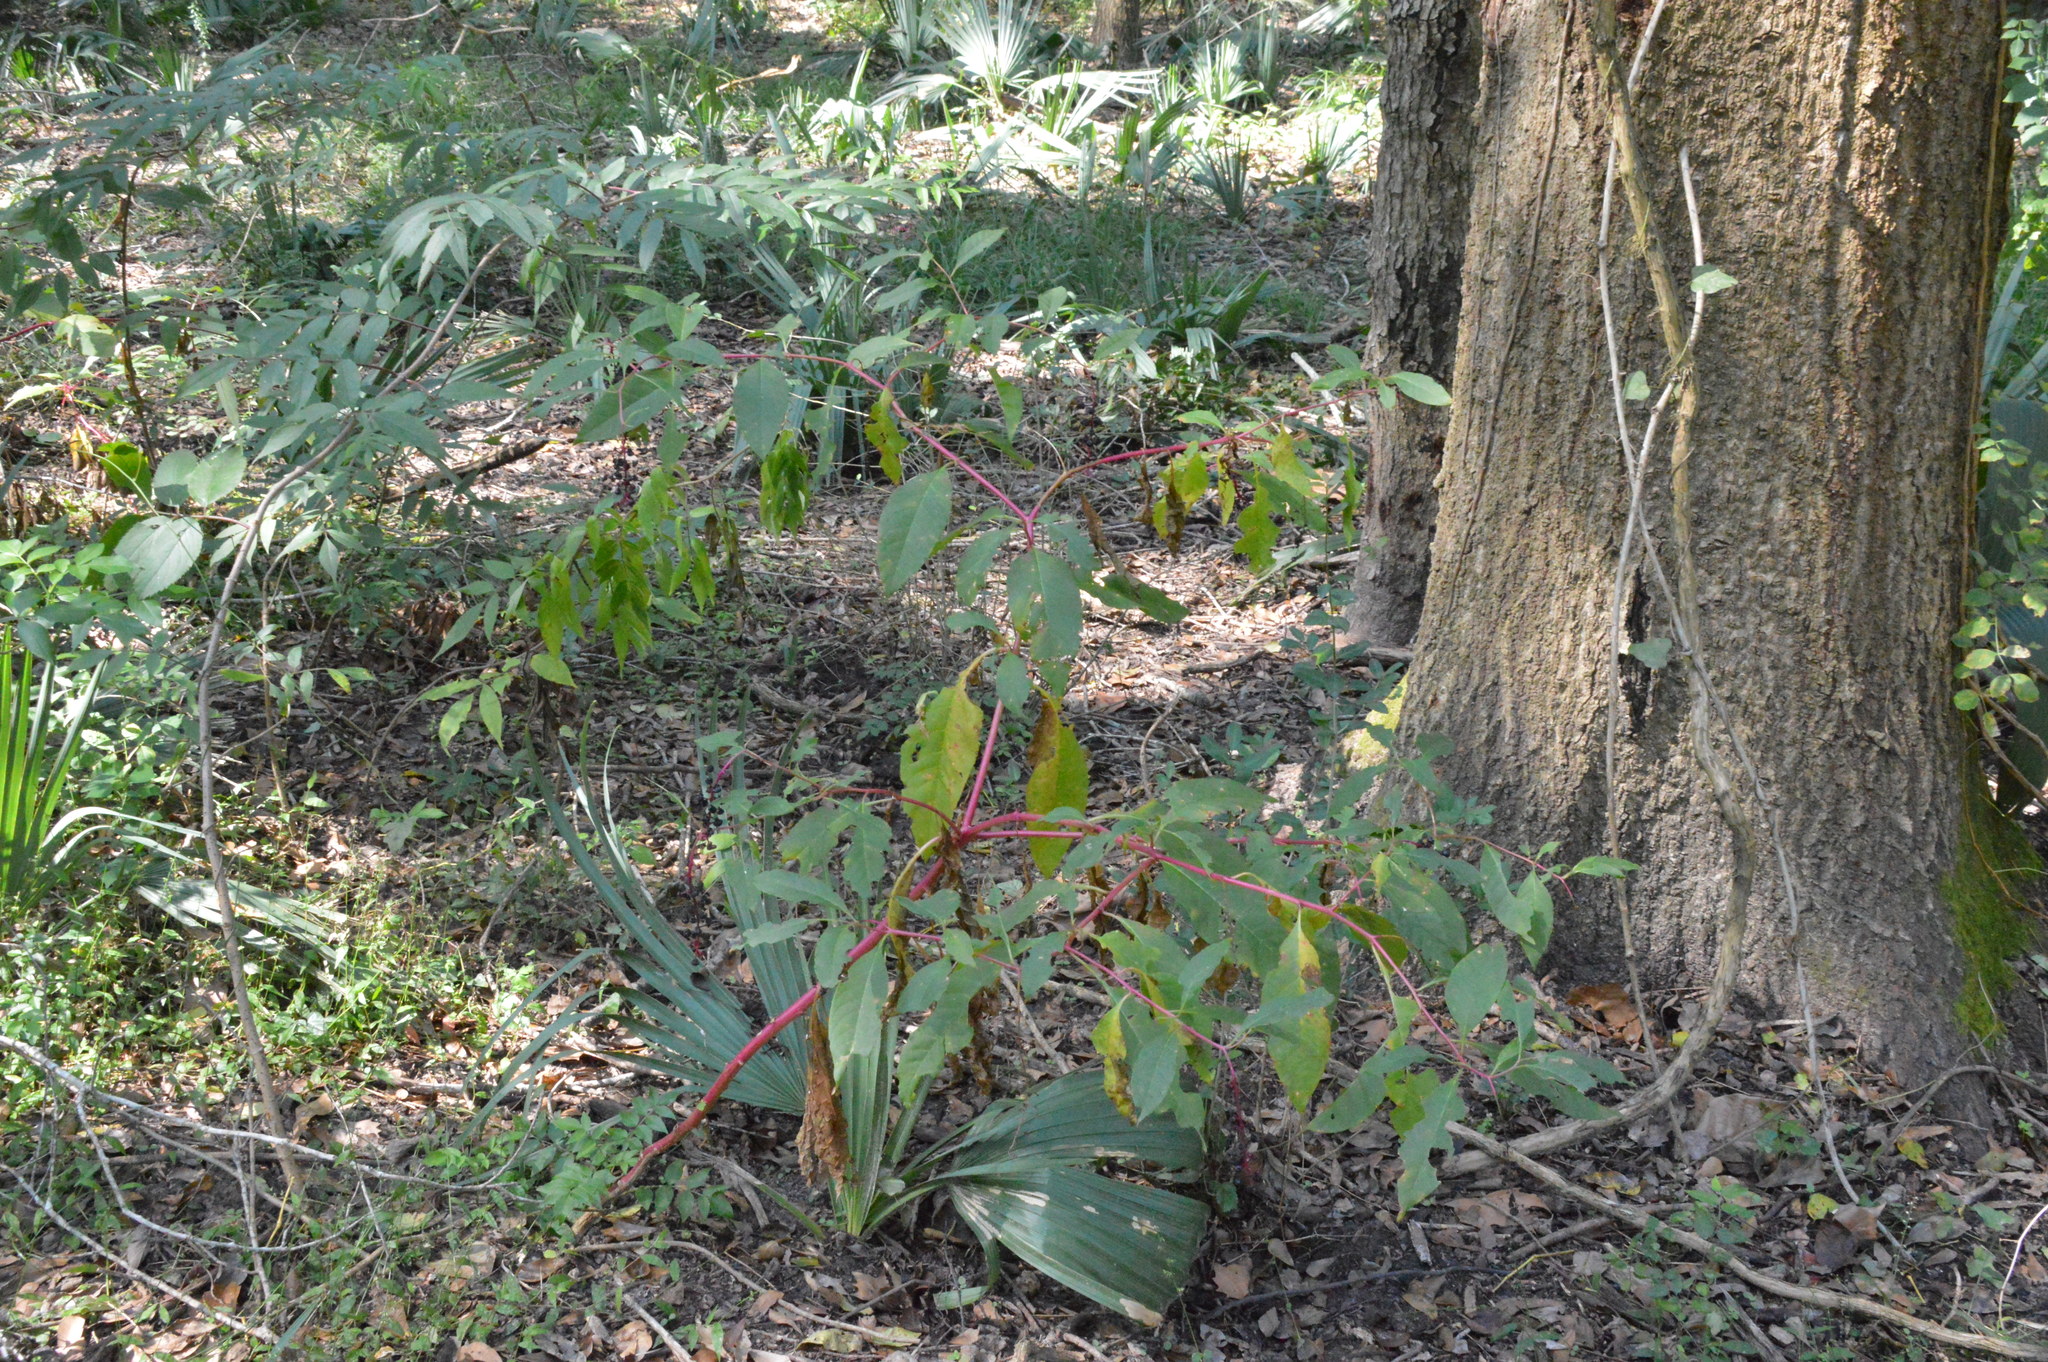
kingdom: Plantae
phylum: Tracheophyta
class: Magnoliopsida
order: Caryophyllales
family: Phytolaccaceae
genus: Phytolacca
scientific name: Phytolacca americana
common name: American pokeweed
